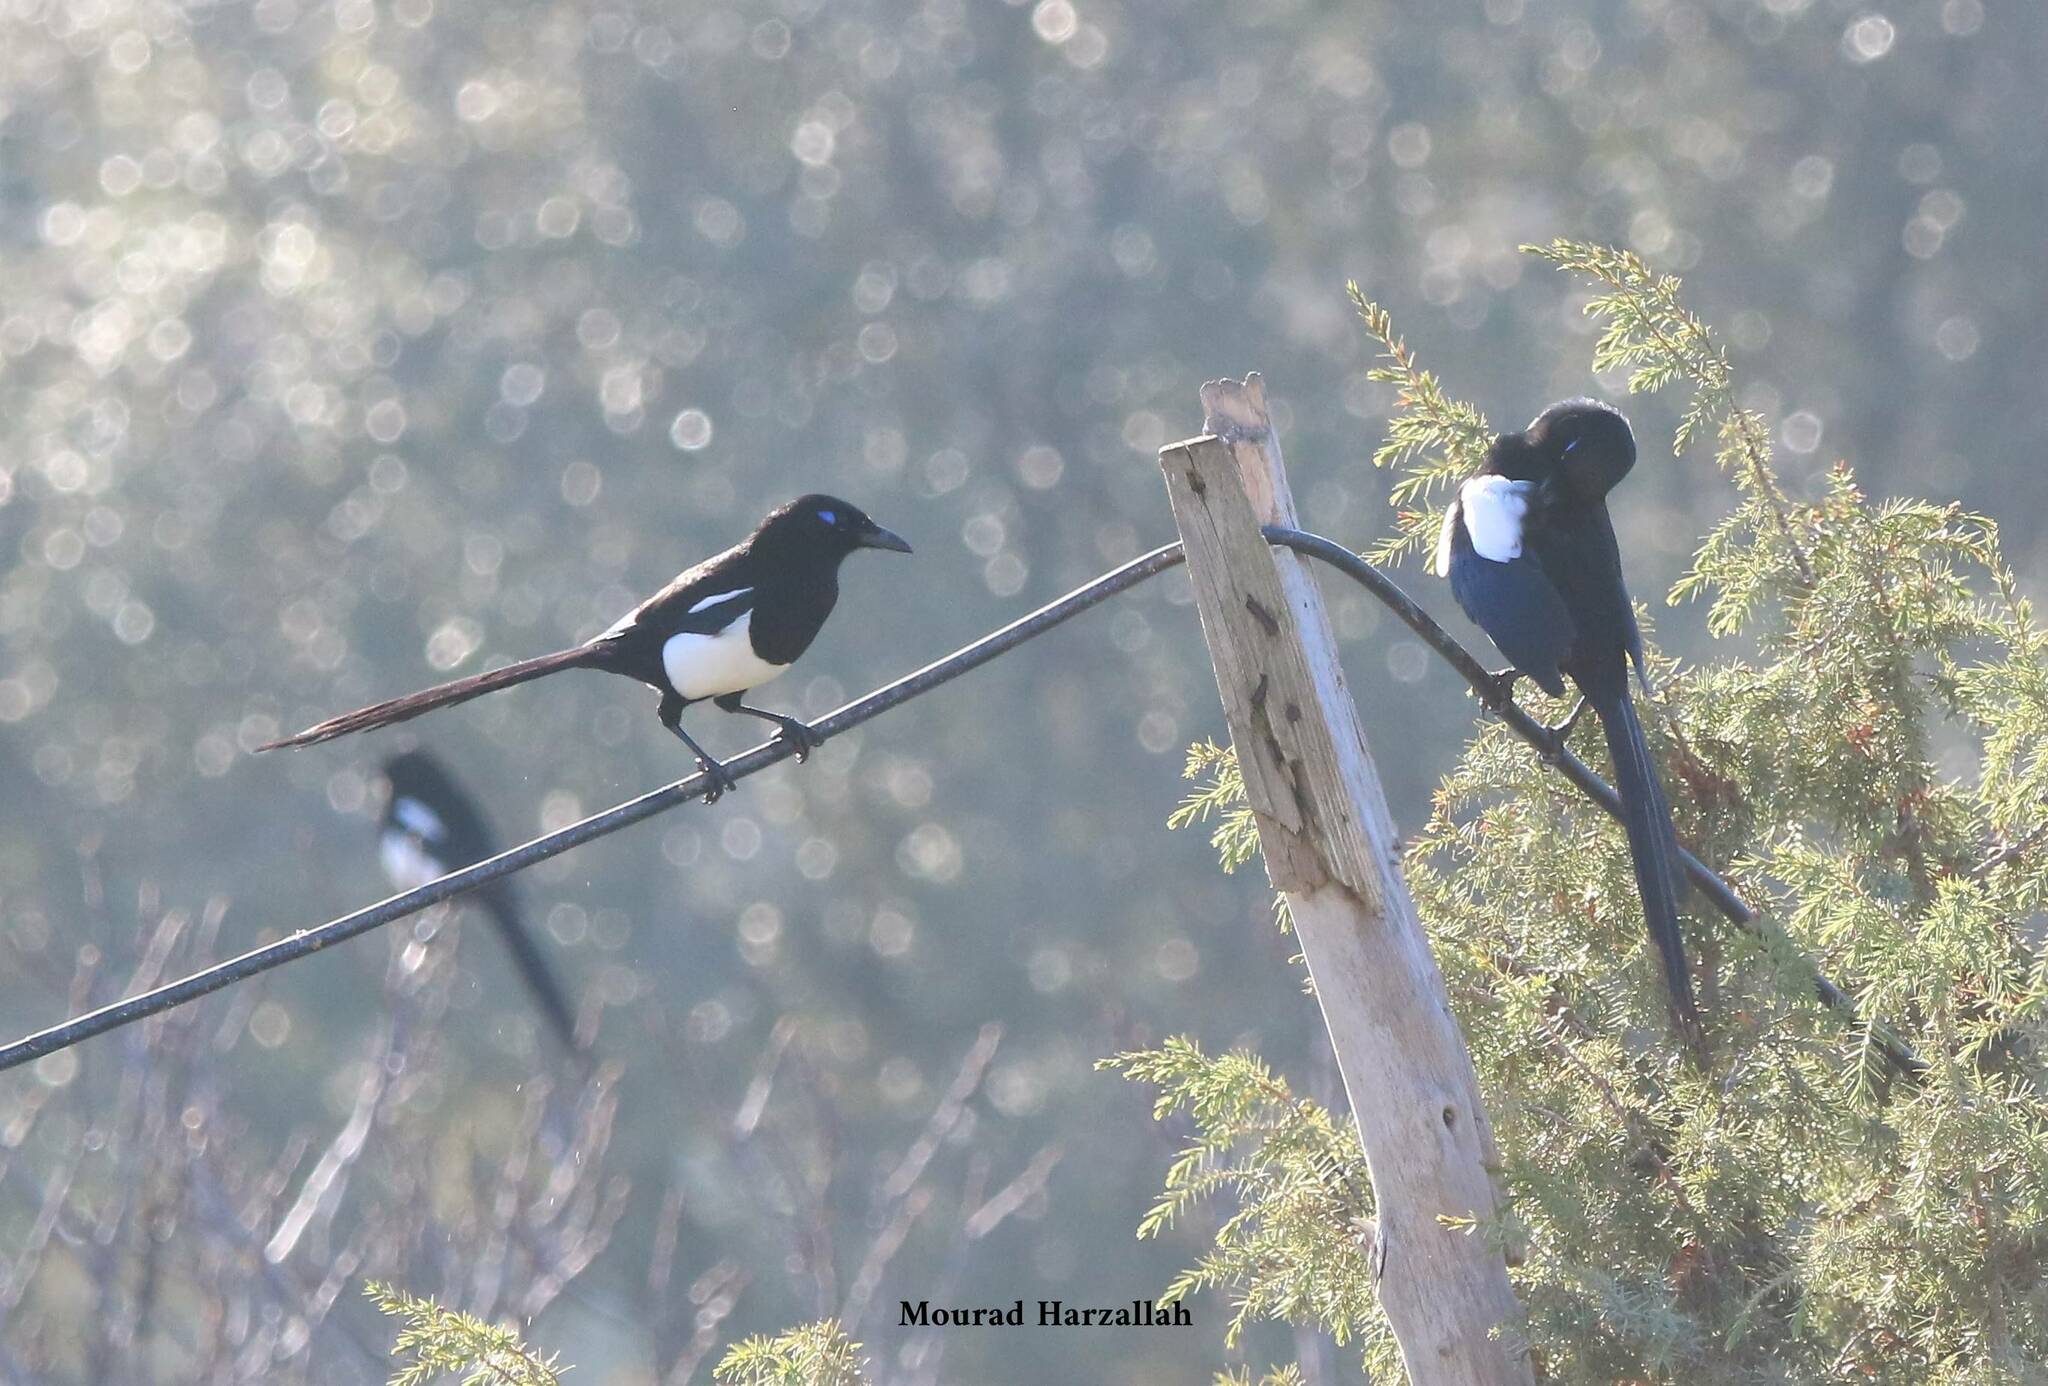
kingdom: Animalia
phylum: Chordata
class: Aves
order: Passeriformes
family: Corvidae
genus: Pica
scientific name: Pica mauritanica
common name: Maghreb magpie
